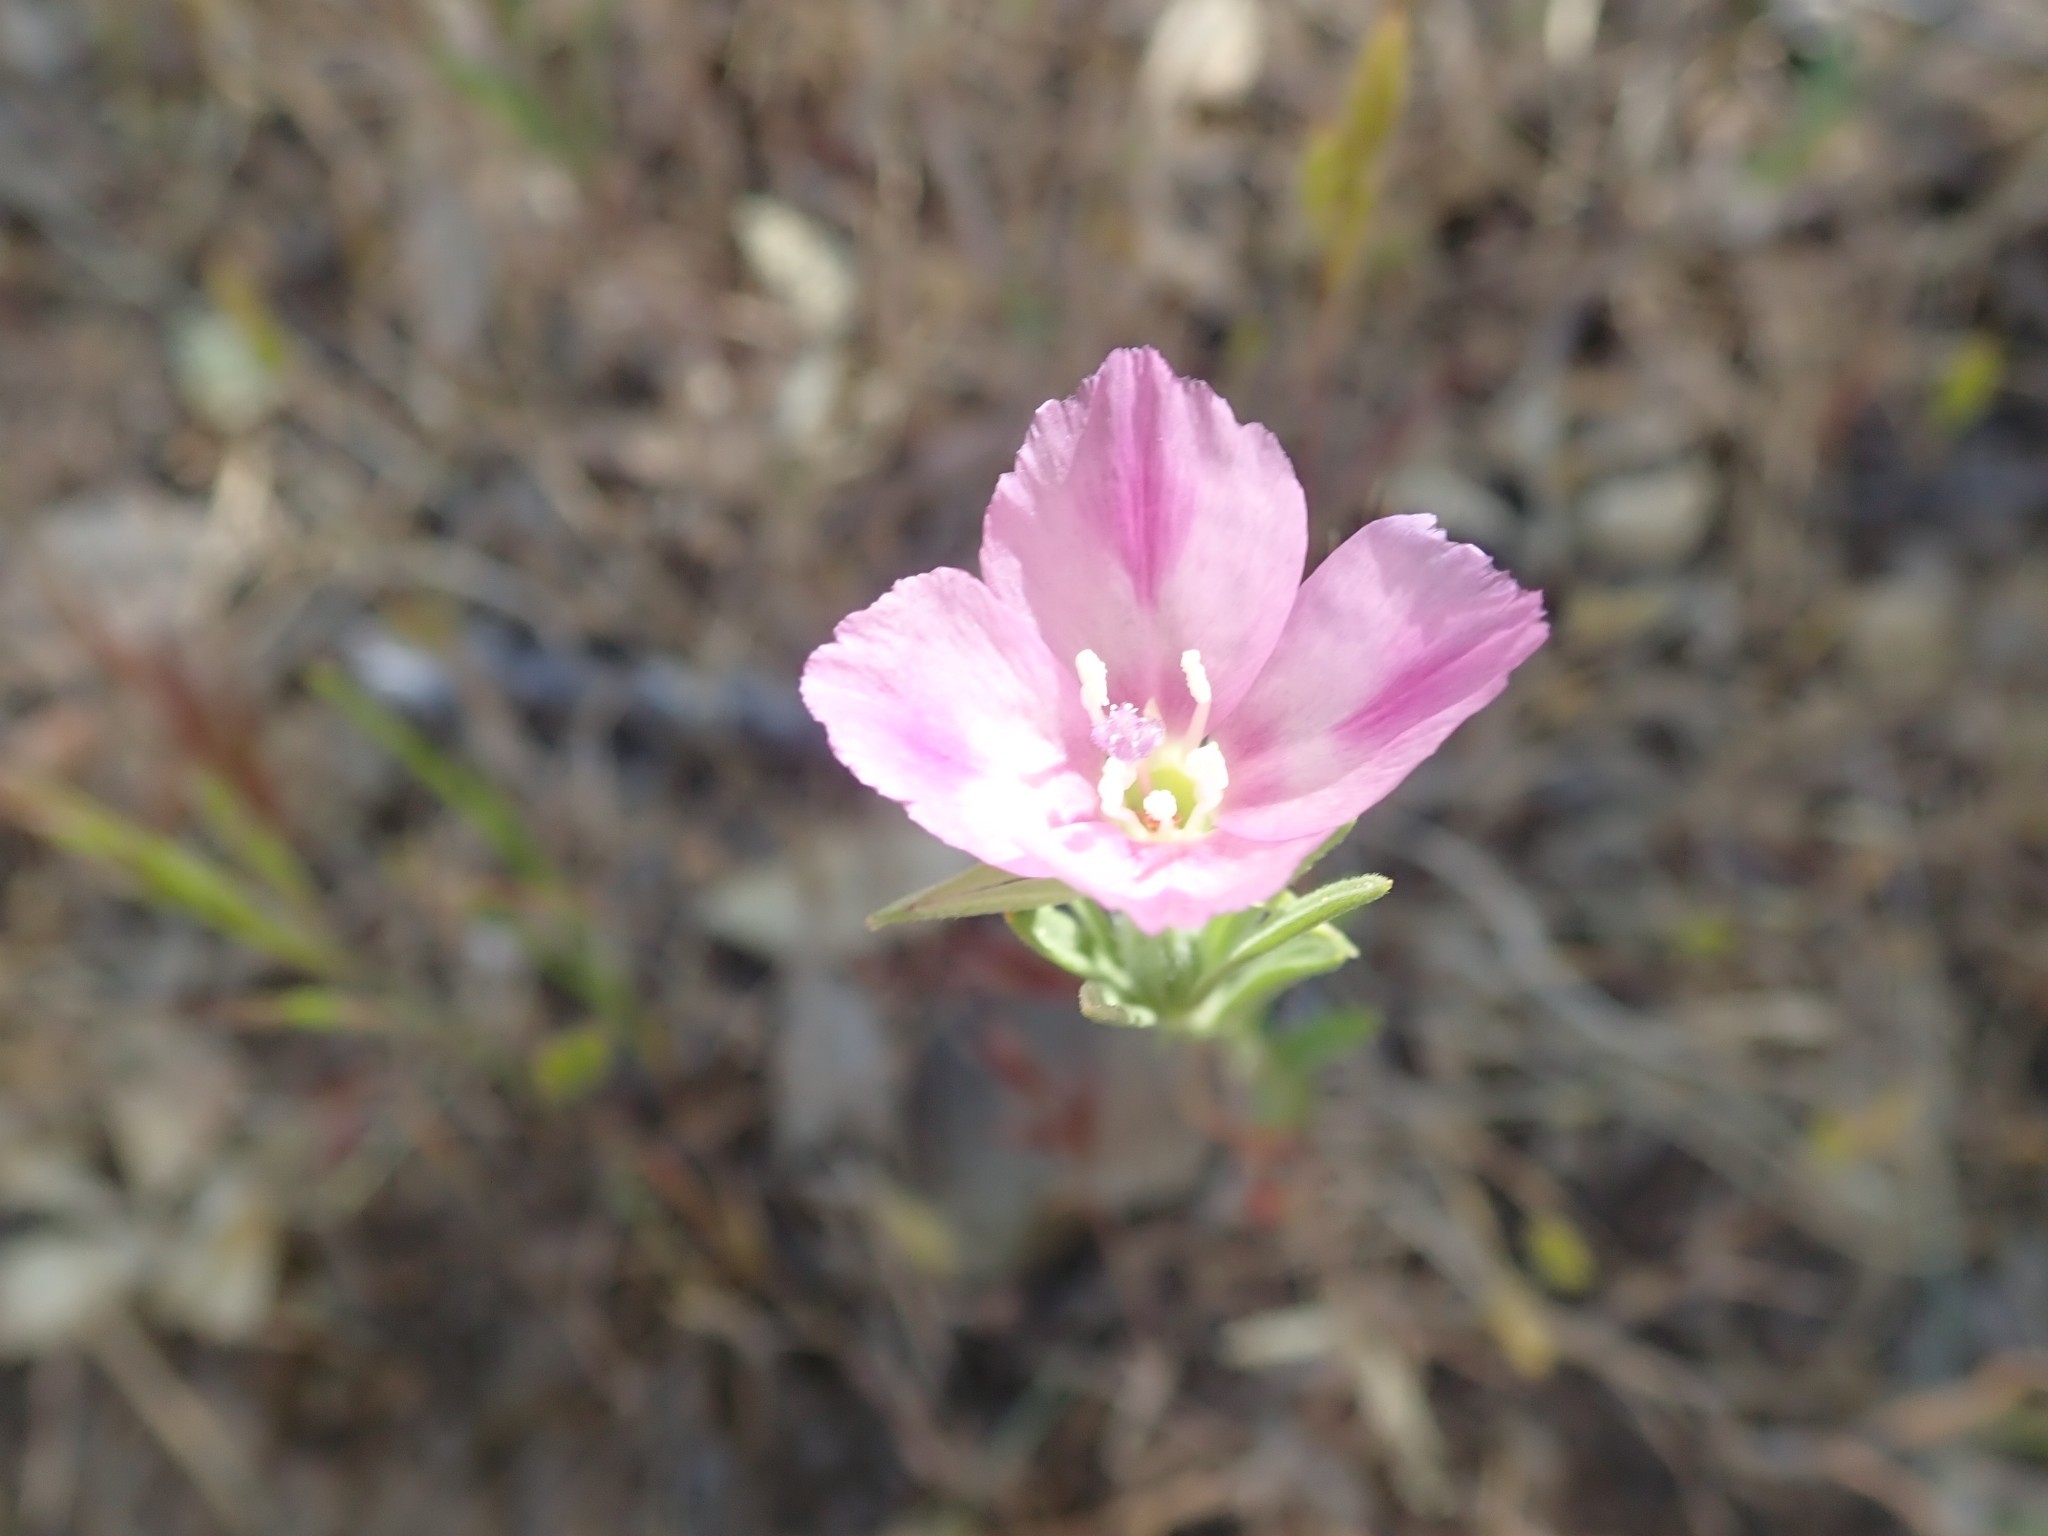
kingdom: Plantae
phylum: Tracheophyta
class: Magnoliopsida
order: Myrtales
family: Onagraceae
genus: Clarkia
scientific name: Clarkia purpurea
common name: Purple clarkia
